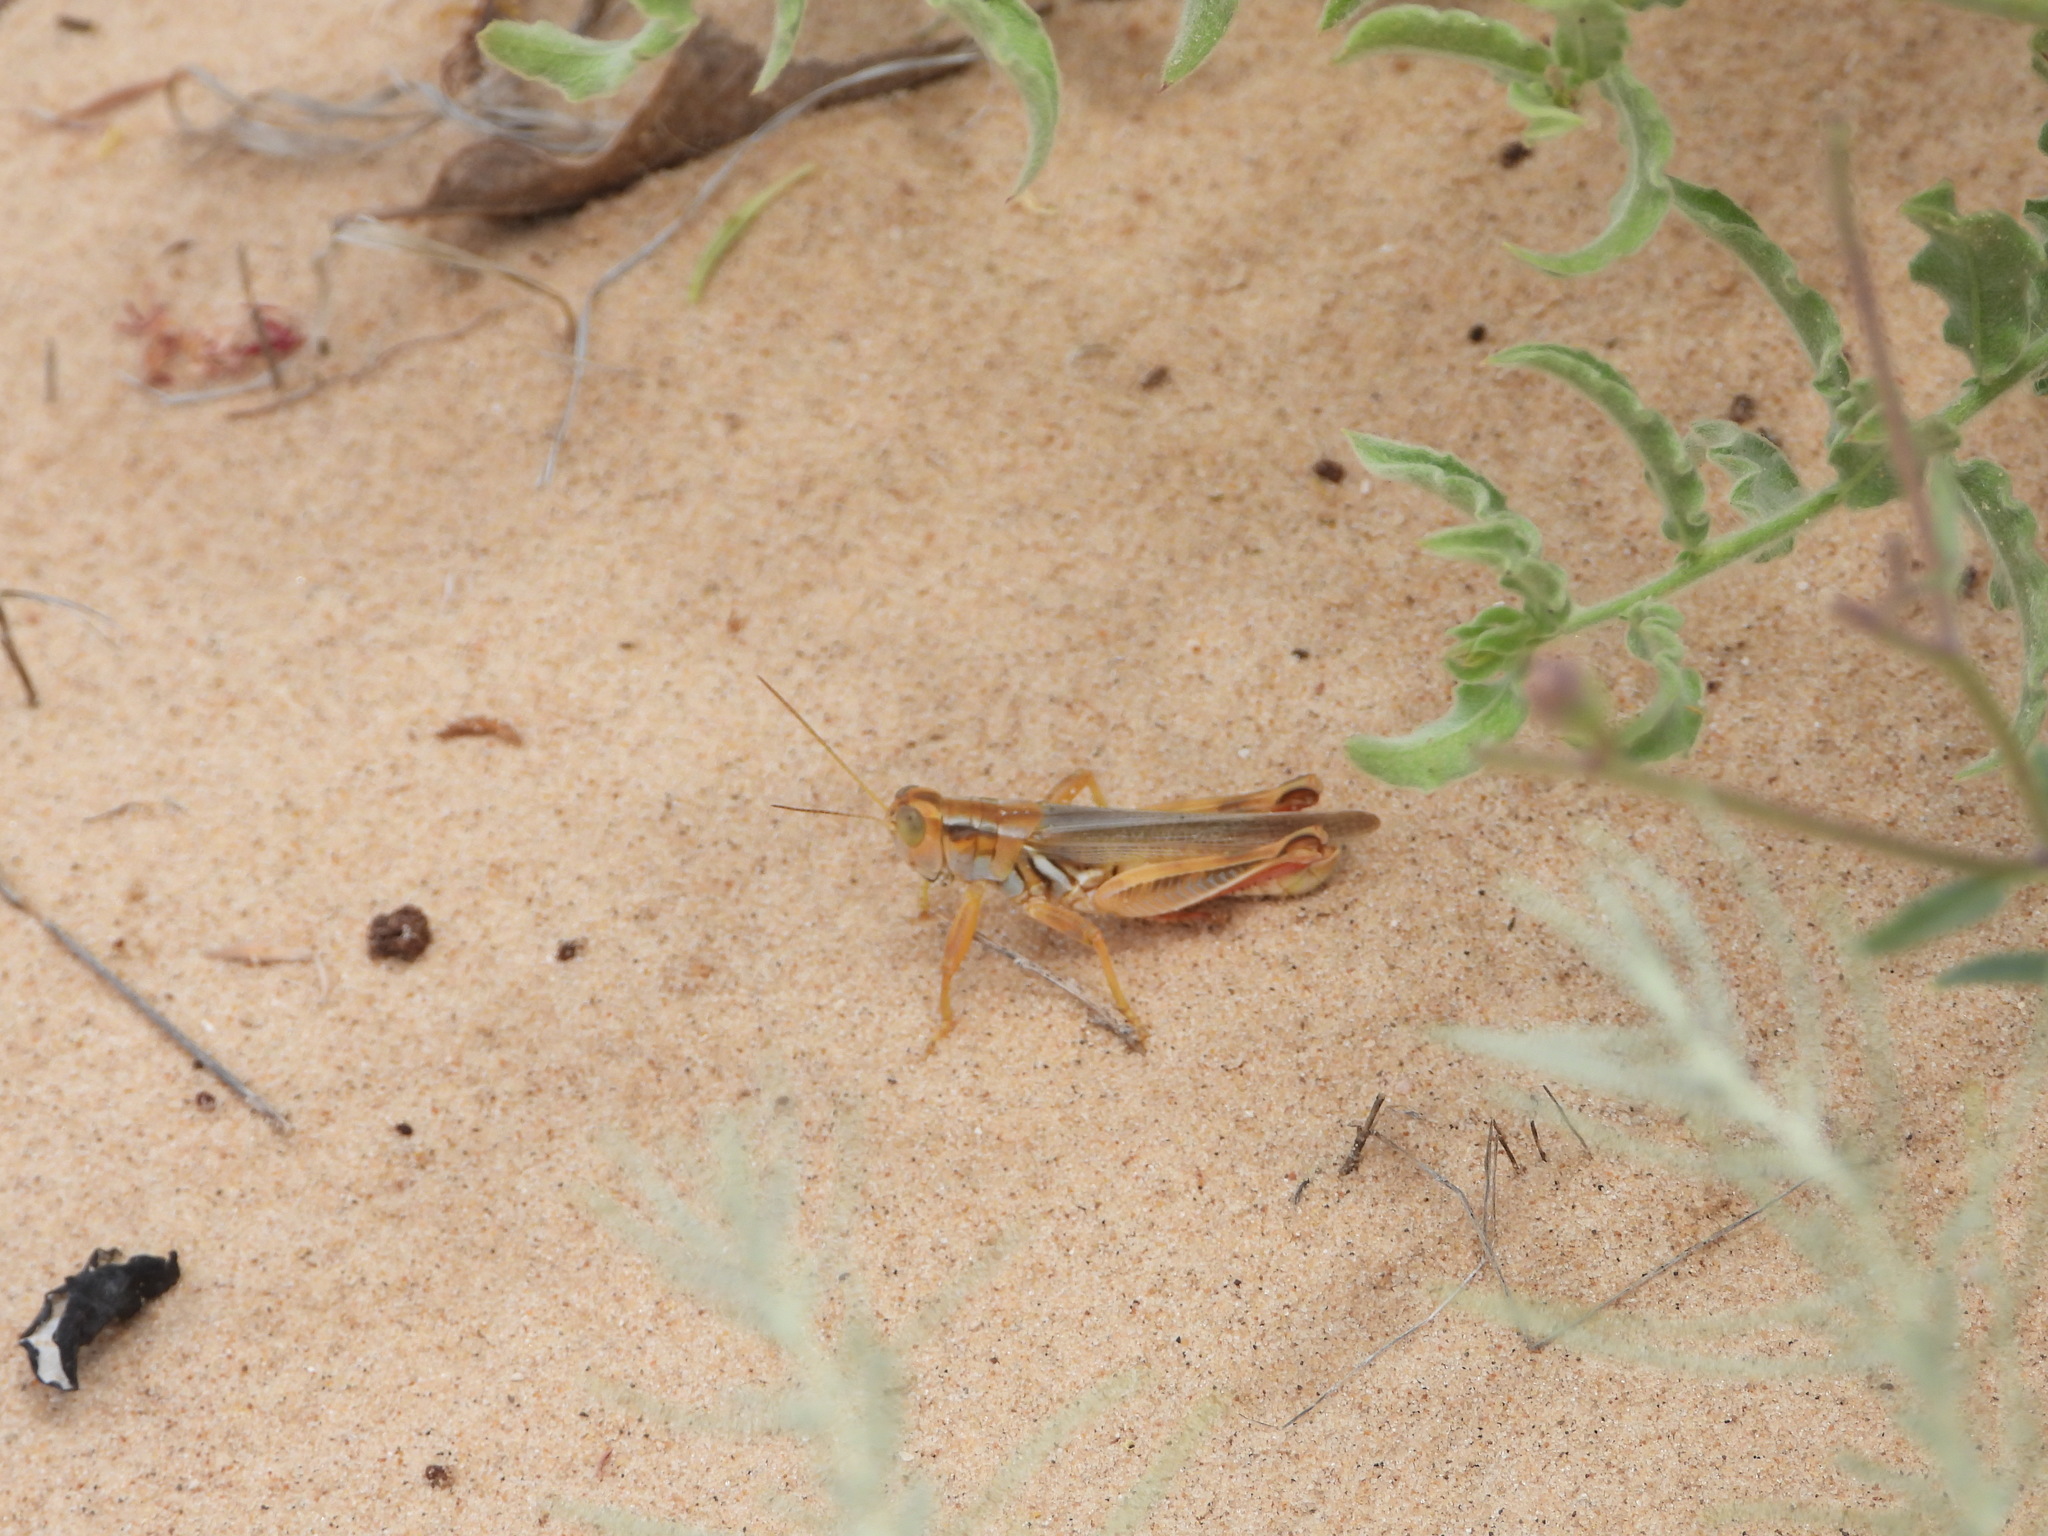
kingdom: Animalia
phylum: Arthropoda
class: Insecta
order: Orthoptera
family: Acrididae
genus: Melanoplus
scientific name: Melanoplus foedus
